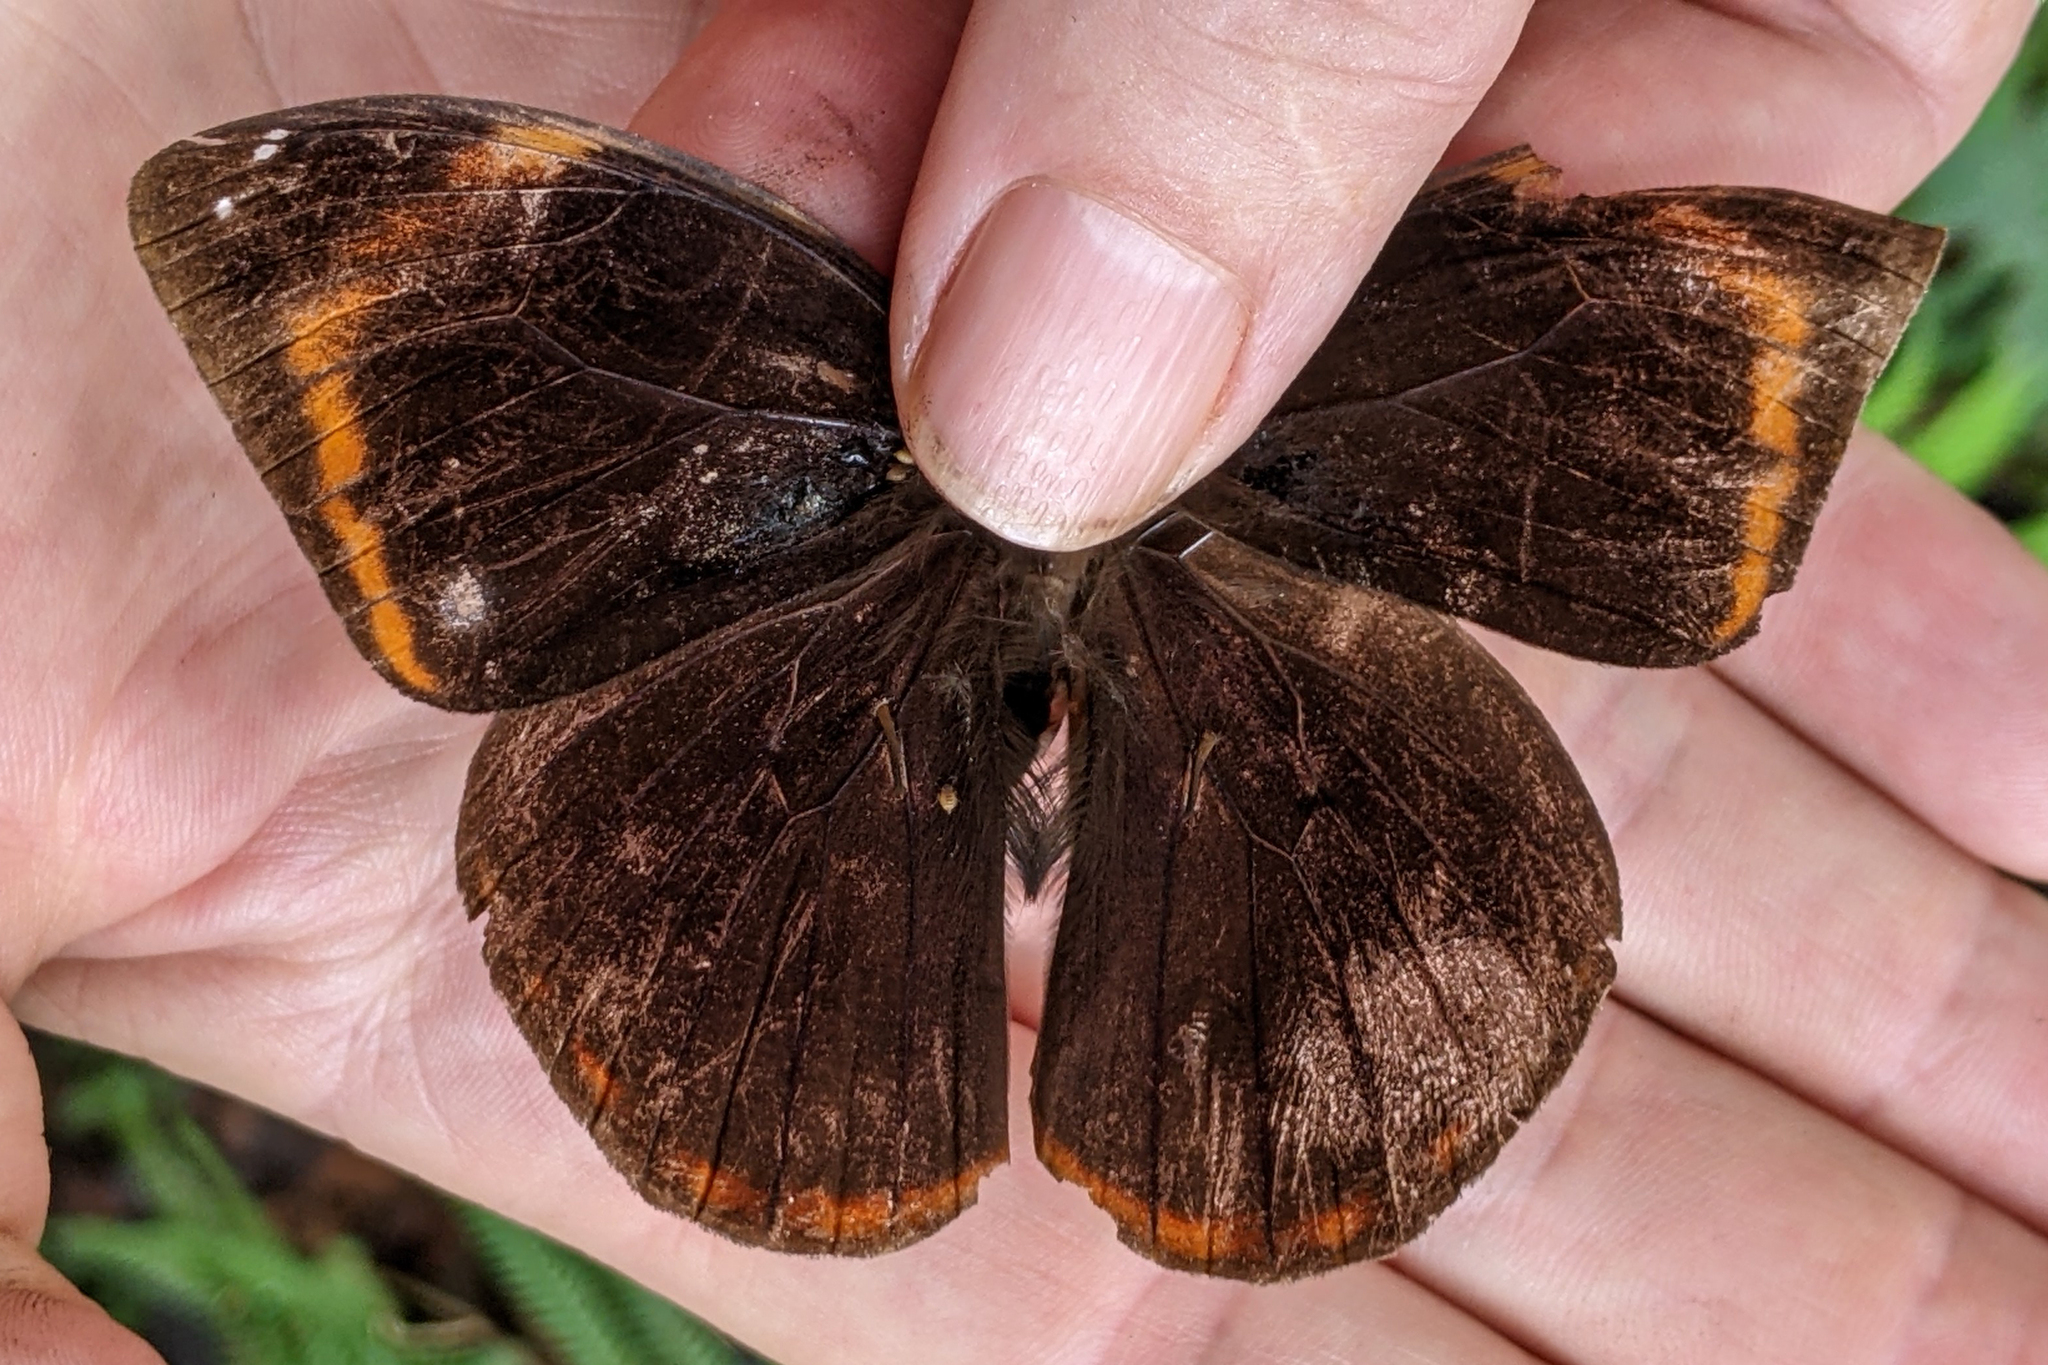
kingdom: Animalia
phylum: Arthropoda
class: Insecta
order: Lepidoptera
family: Nymphalidae
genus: Catoblepia
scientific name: Catoblepia berecynthia
